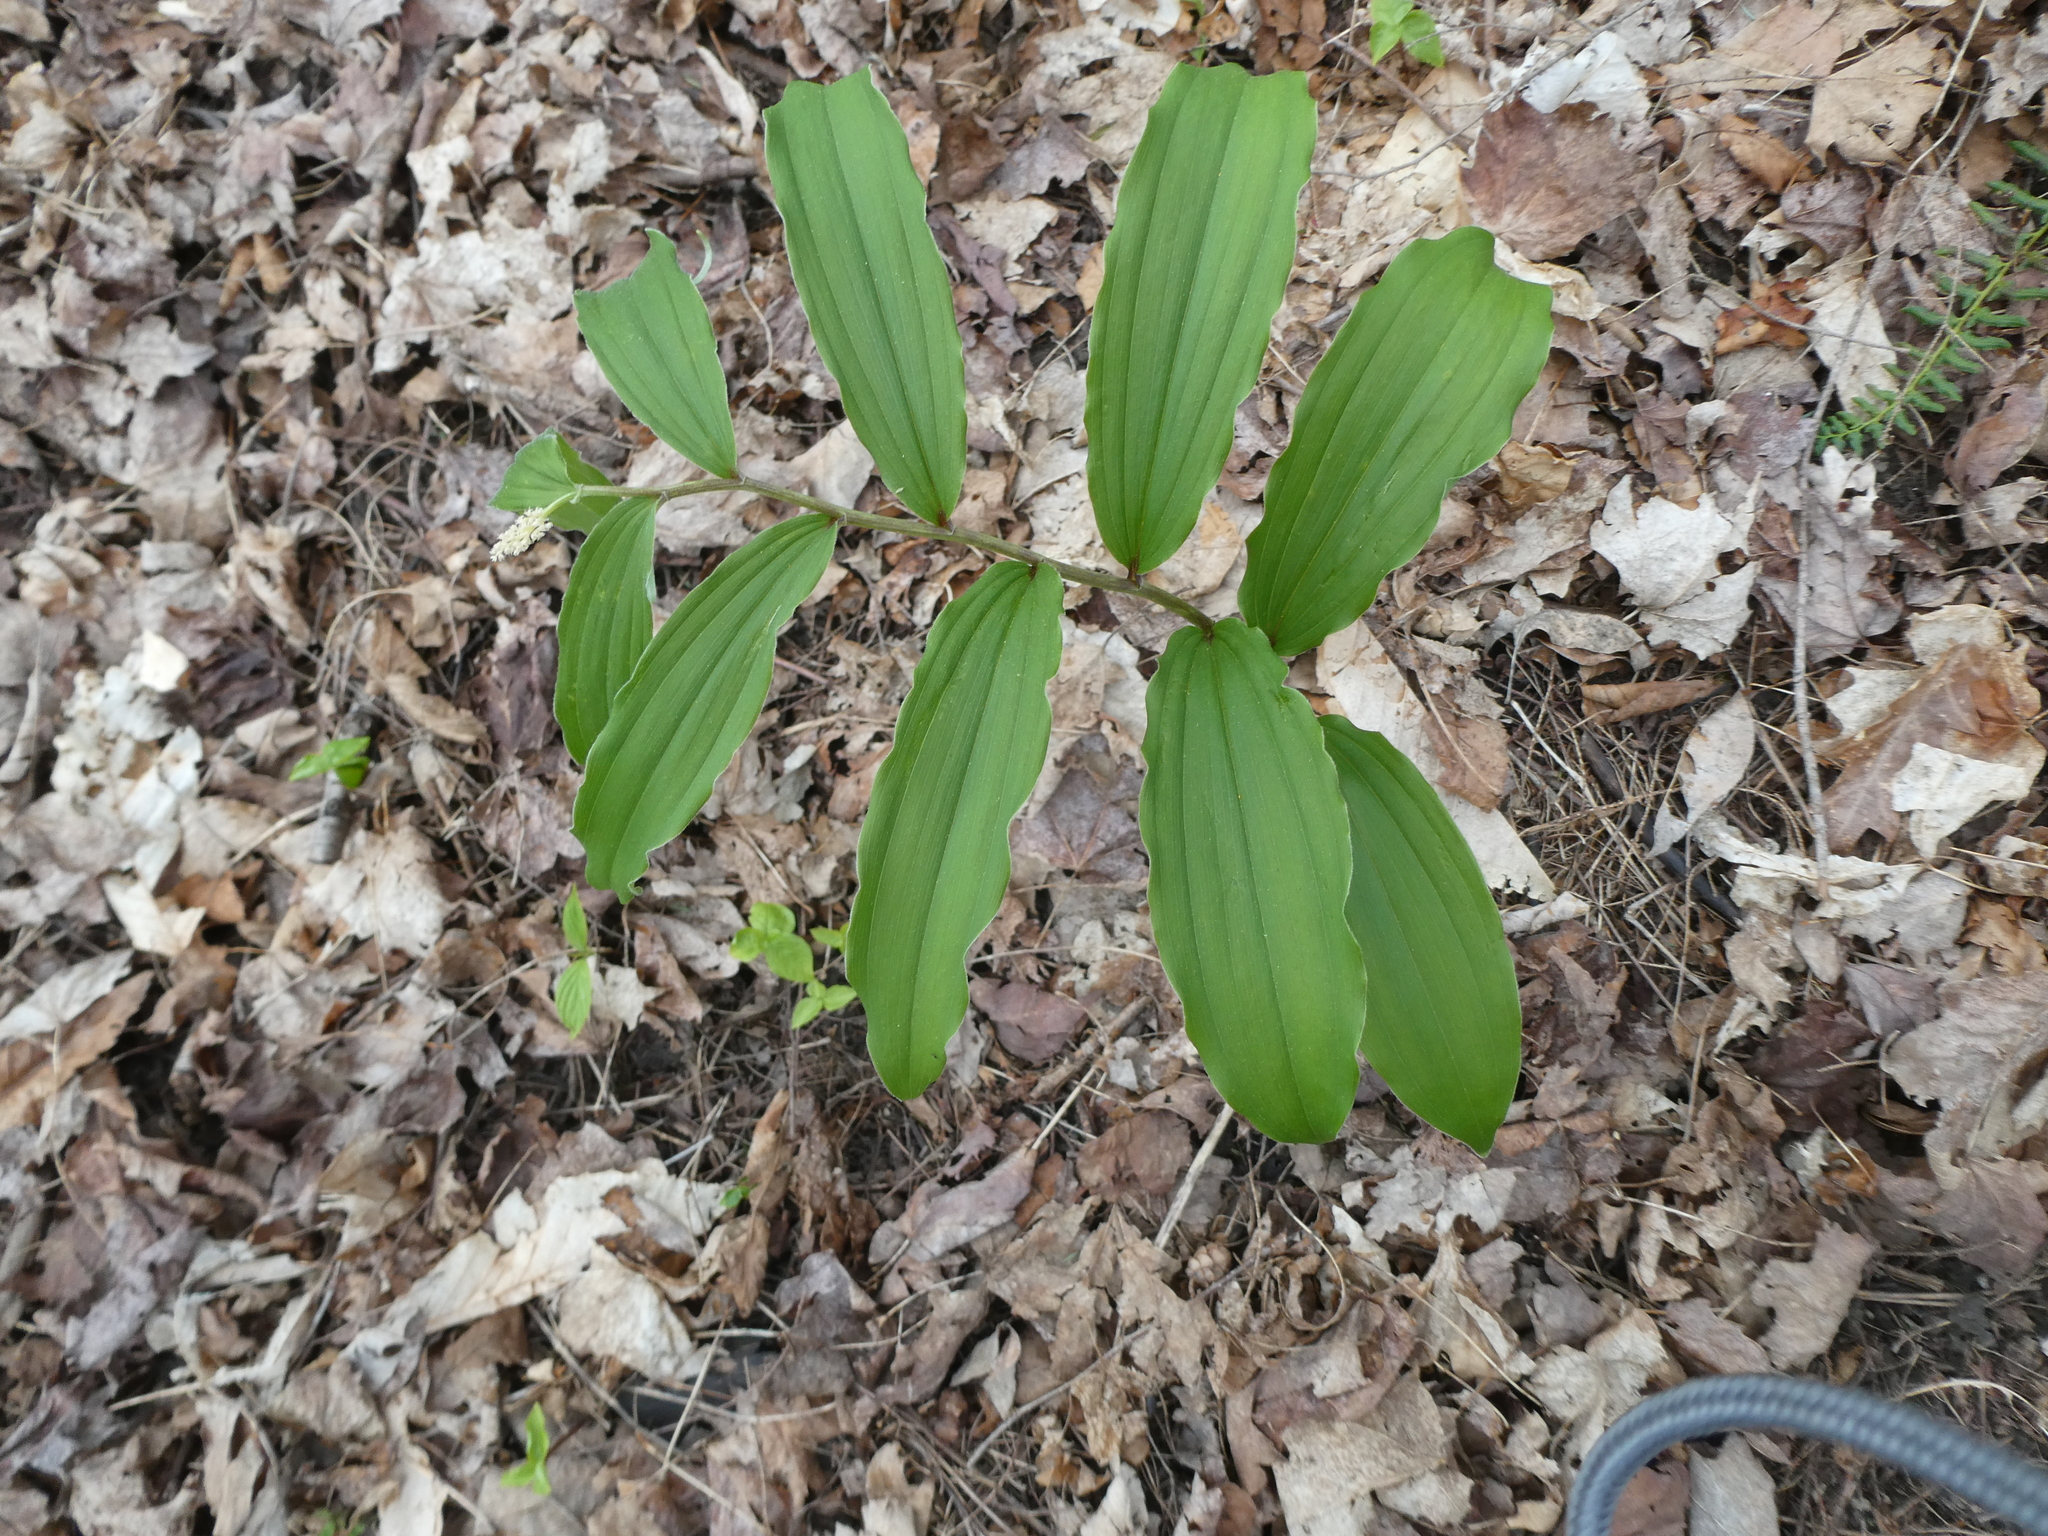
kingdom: Plantae
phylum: Tracheophyta
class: Liliopsida
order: Asparagales
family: Asparagaceae
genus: Maianthemum
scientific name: Maianthemum racemosum
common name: False spikenard
